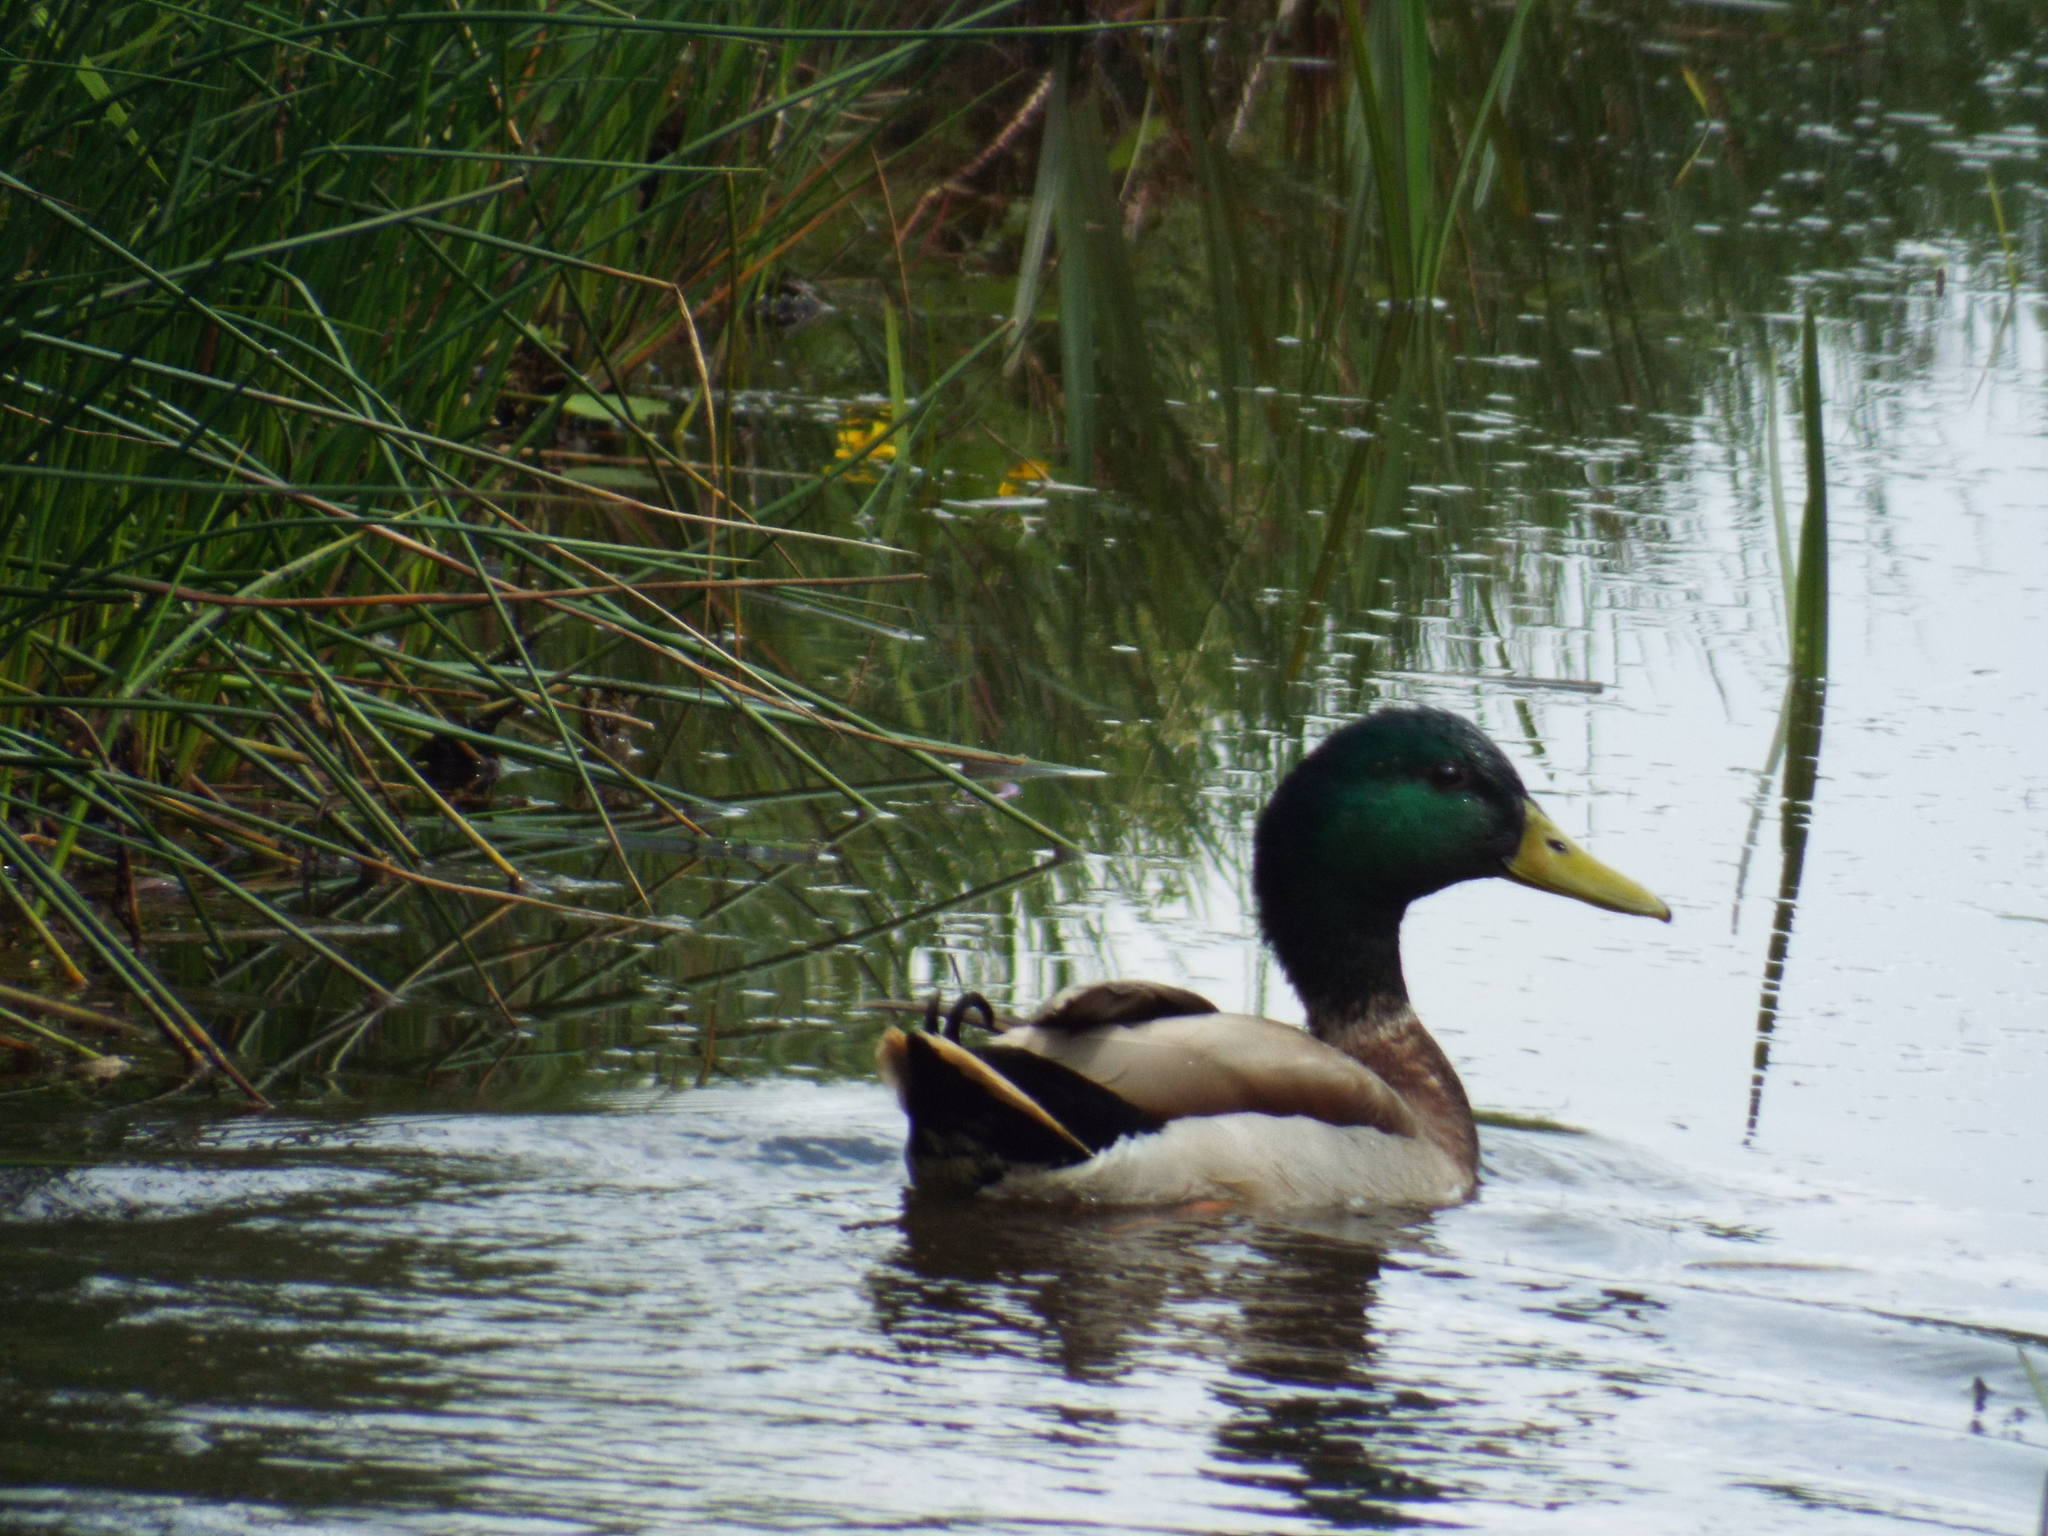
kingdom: Animalia
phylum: Chordata
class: Aves
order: Anseriformes
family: Anatidae
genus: Anas
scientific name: Anas platyrhynchos
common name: Mallard
